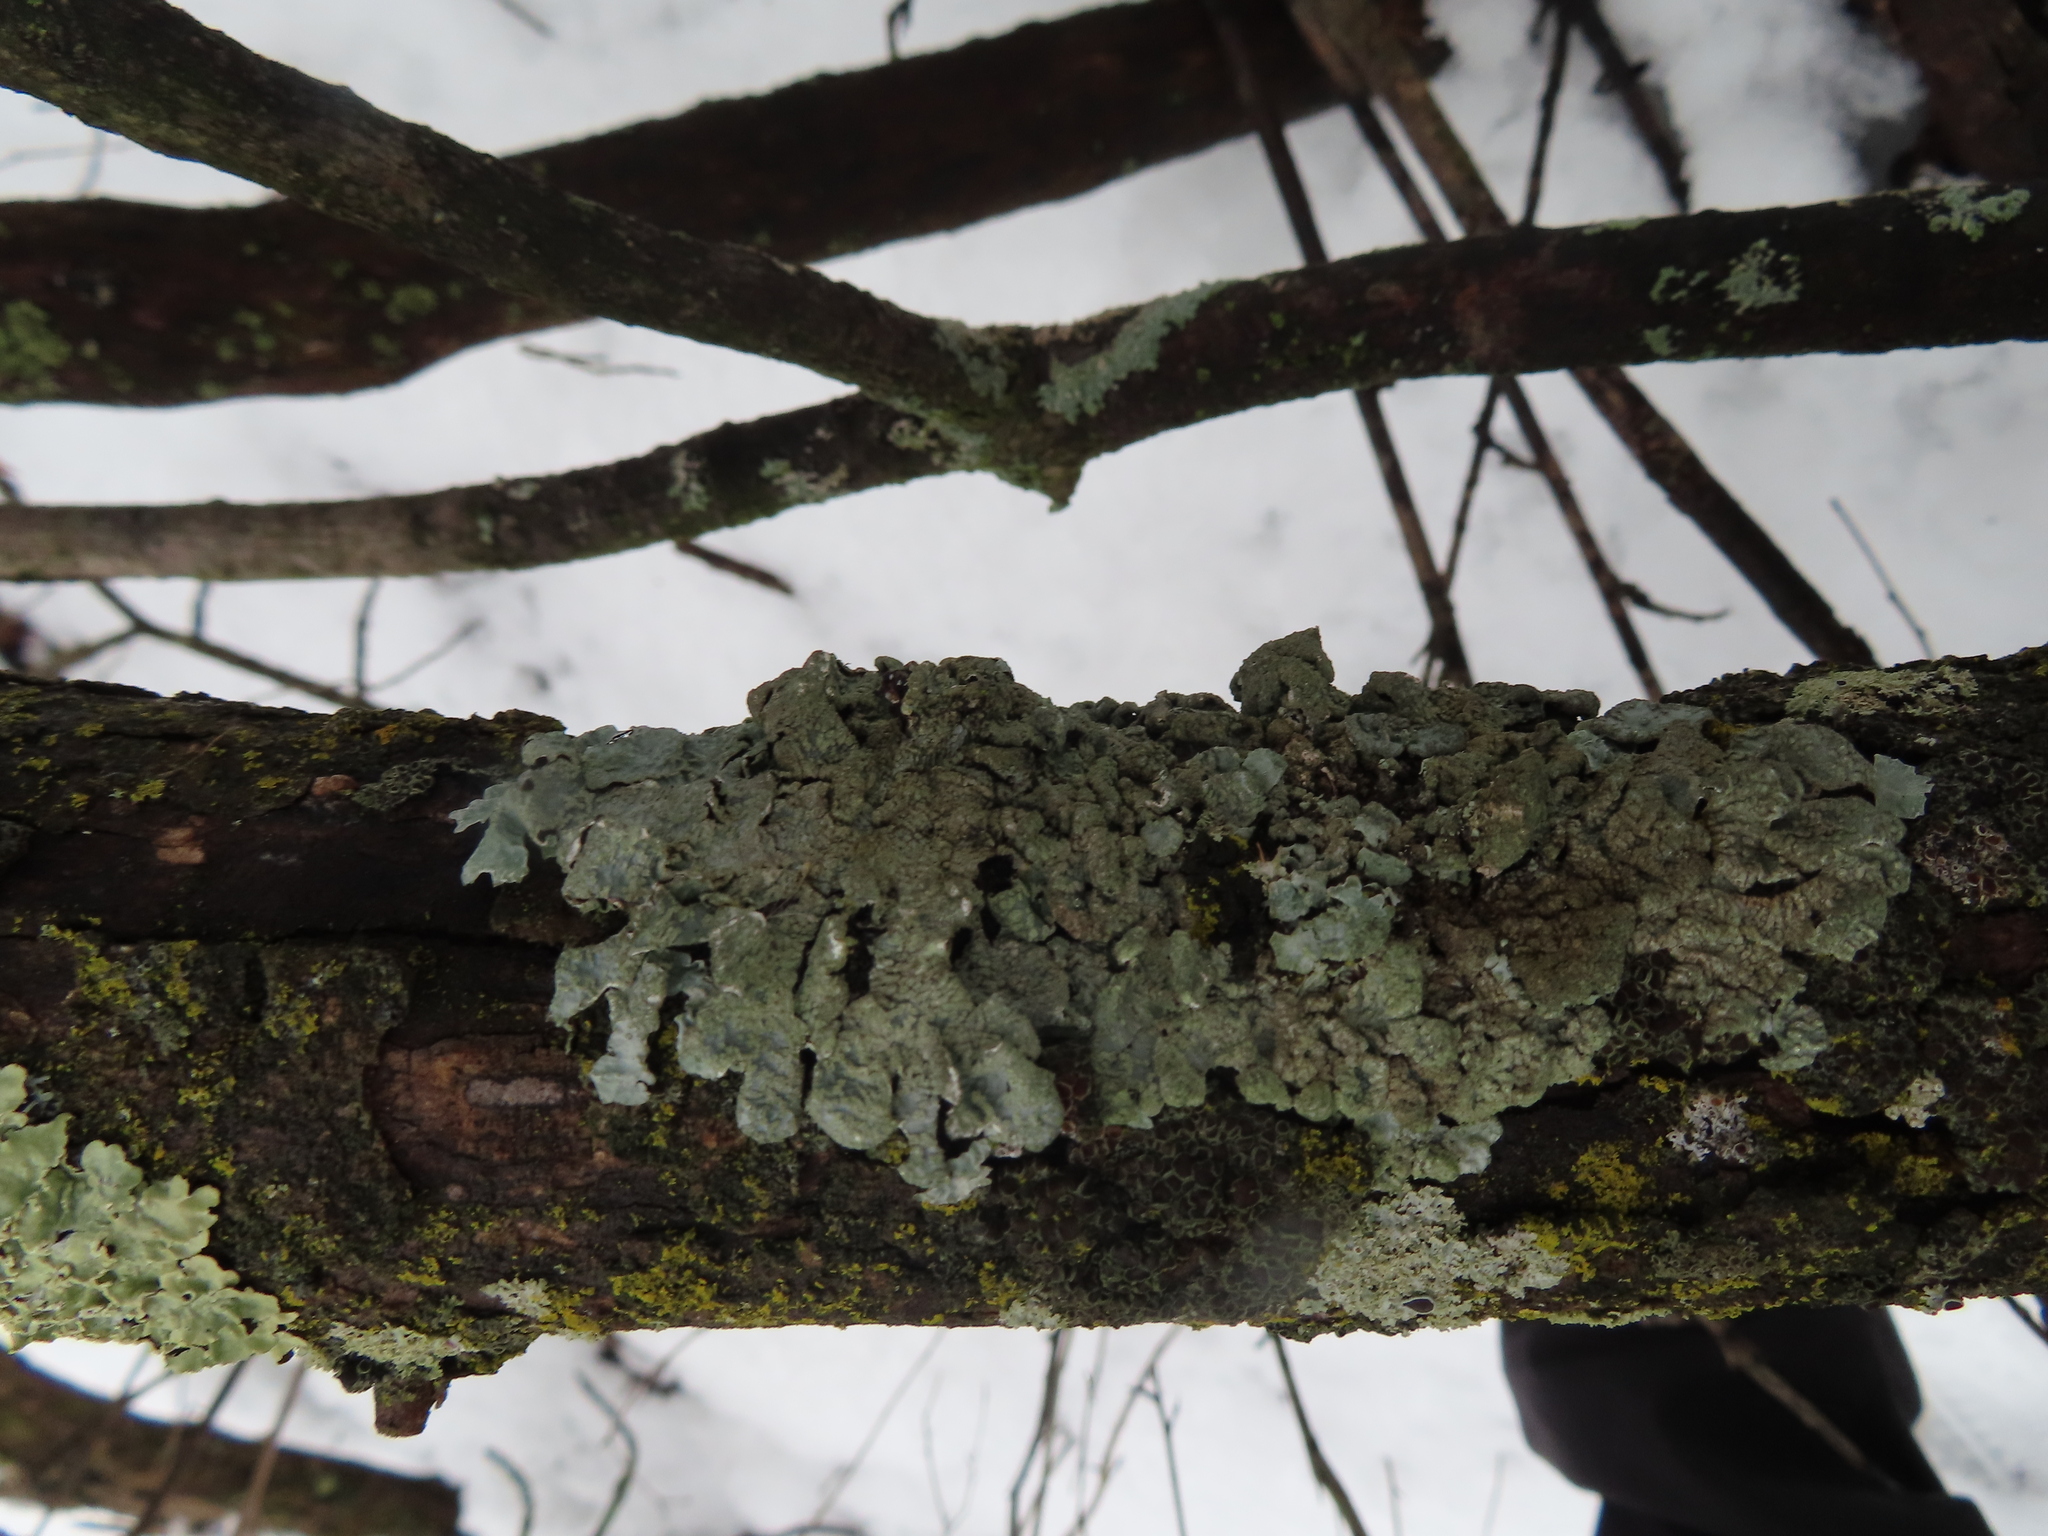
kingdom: Fungi
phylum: Ascomycota
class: Lecanoromycetes
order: Lecanorales
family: Parmeliaceae
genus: Parmelia
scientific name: Parmelia sulcata
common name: Netted shield lichen
